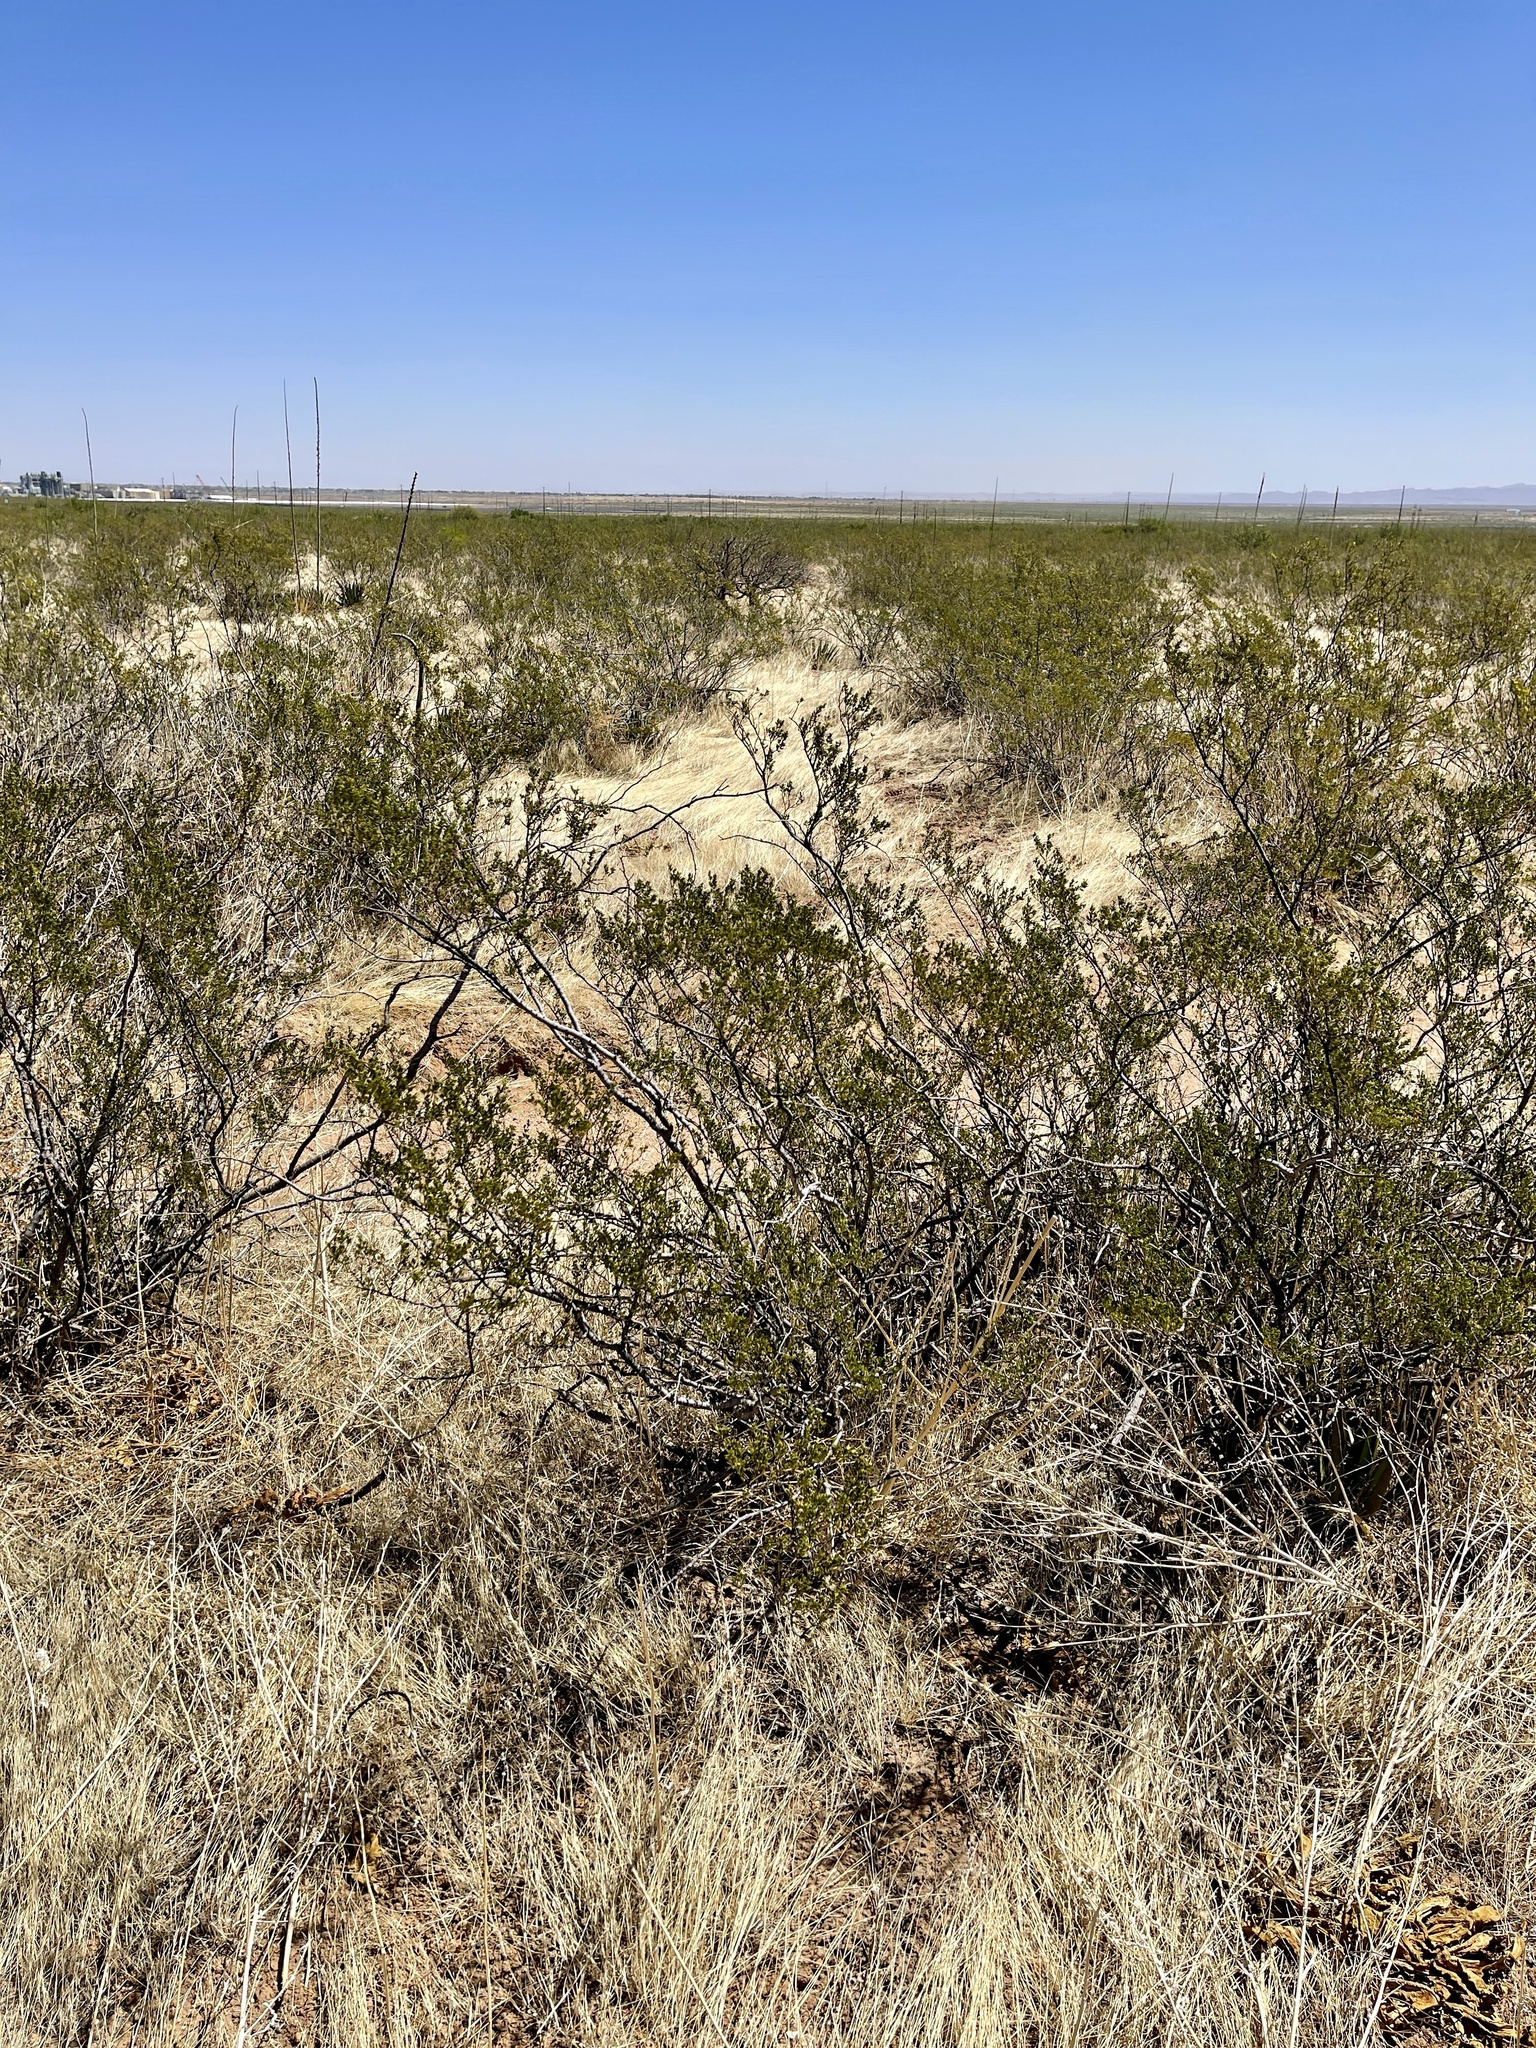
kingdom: Plantae
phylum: Tracheophyta
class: Magnoliopsida
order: Zygophyllales
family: Zygophyllaceae
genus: Larrea
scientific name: Larrea tridentata
